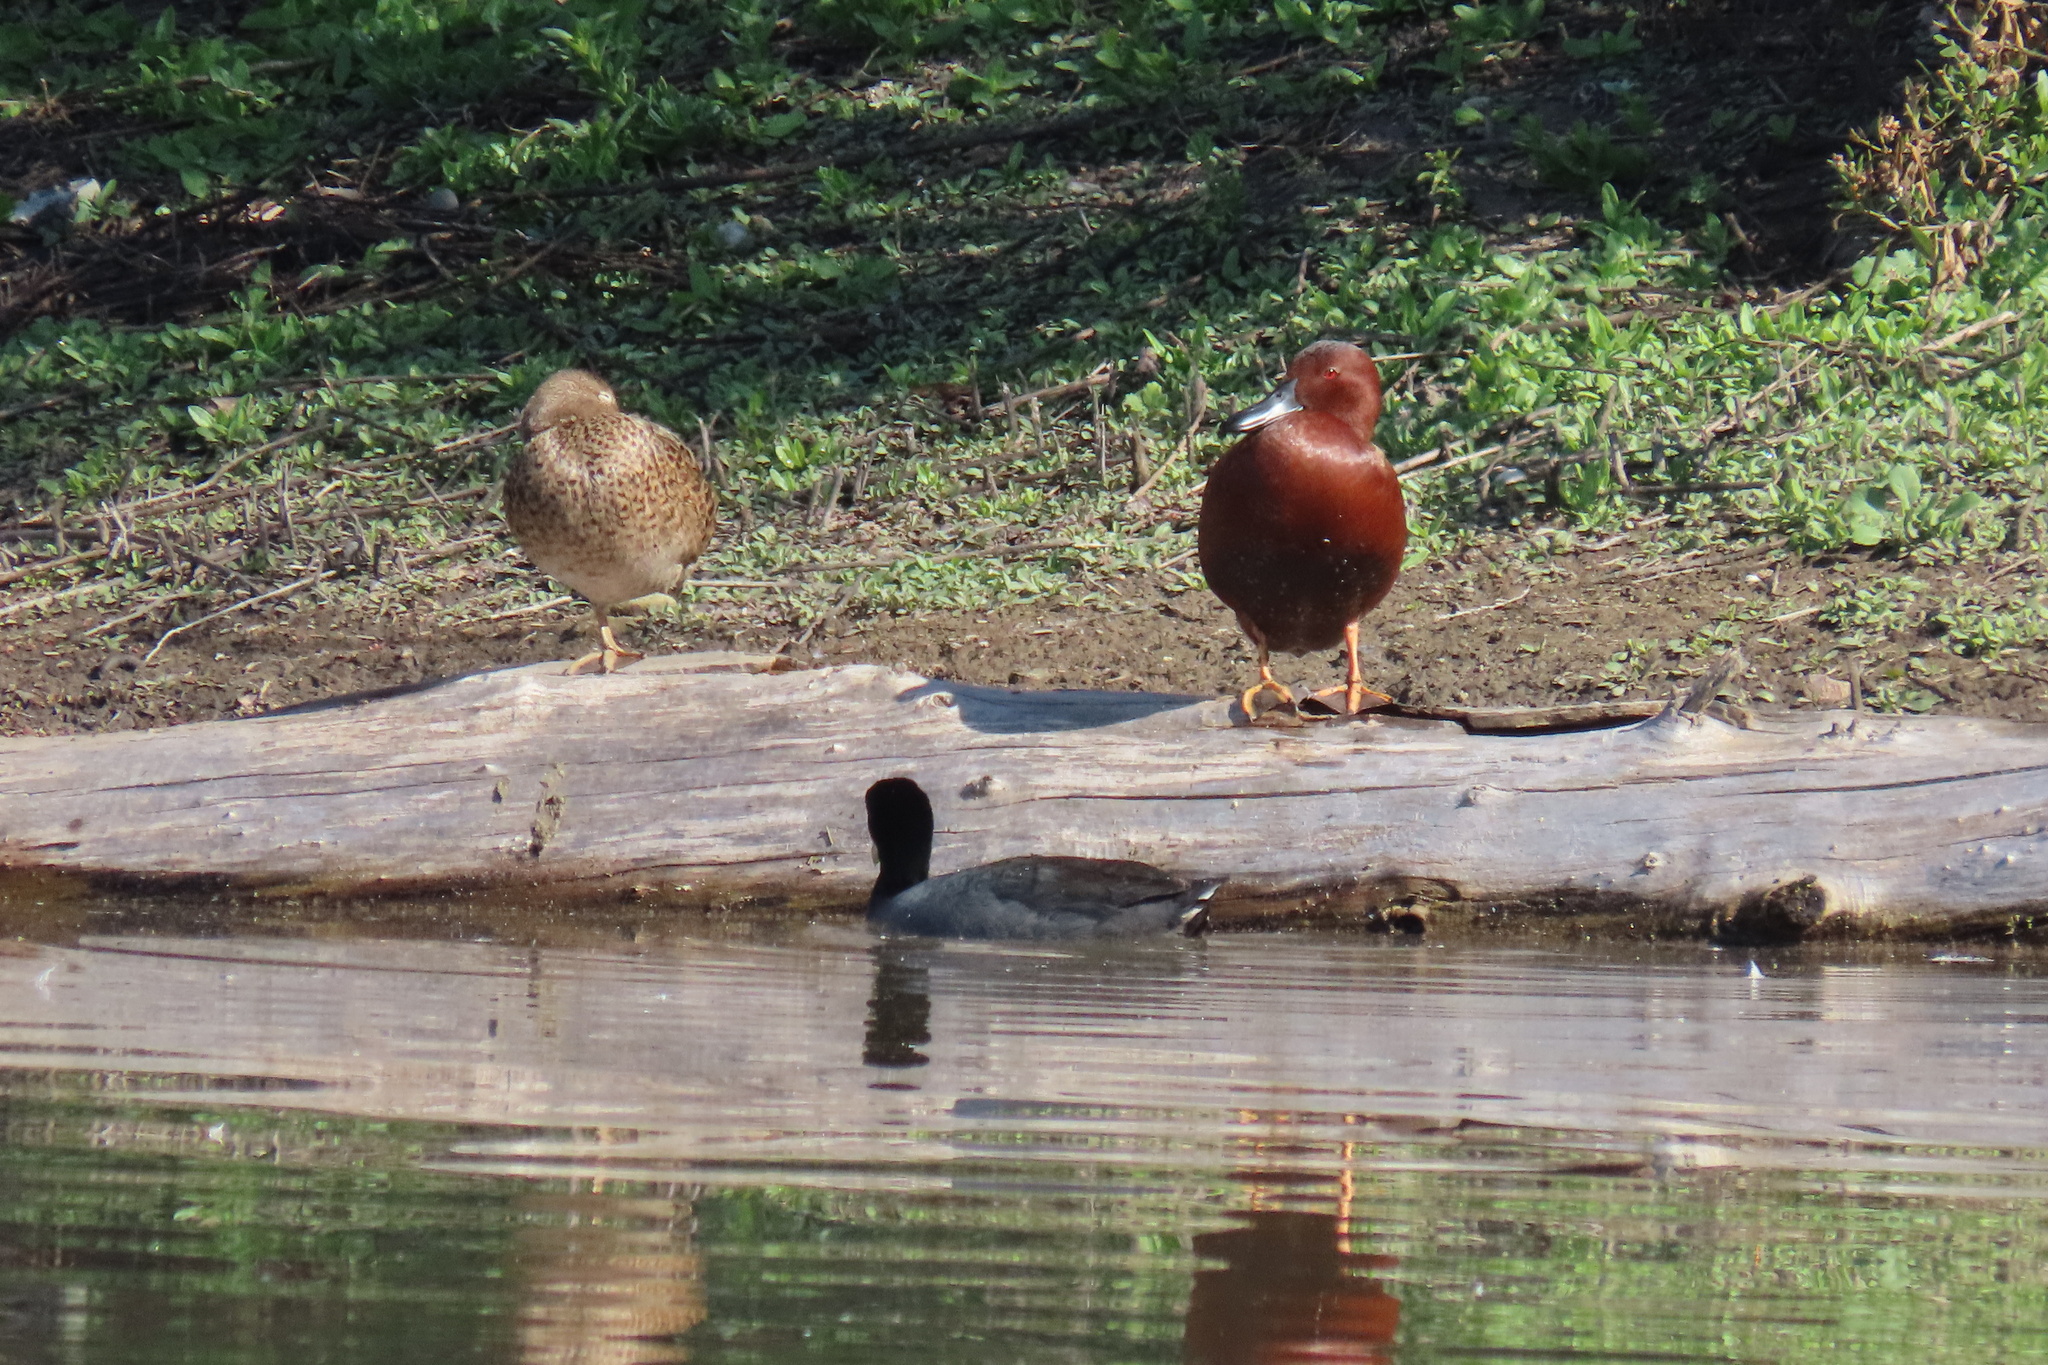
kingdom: Animalia
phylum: Chordata
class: Aves
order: Anseriformes
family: Anatidae
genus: Spatula
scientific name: Spatula cyanoptera
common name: Cinnamon teal
